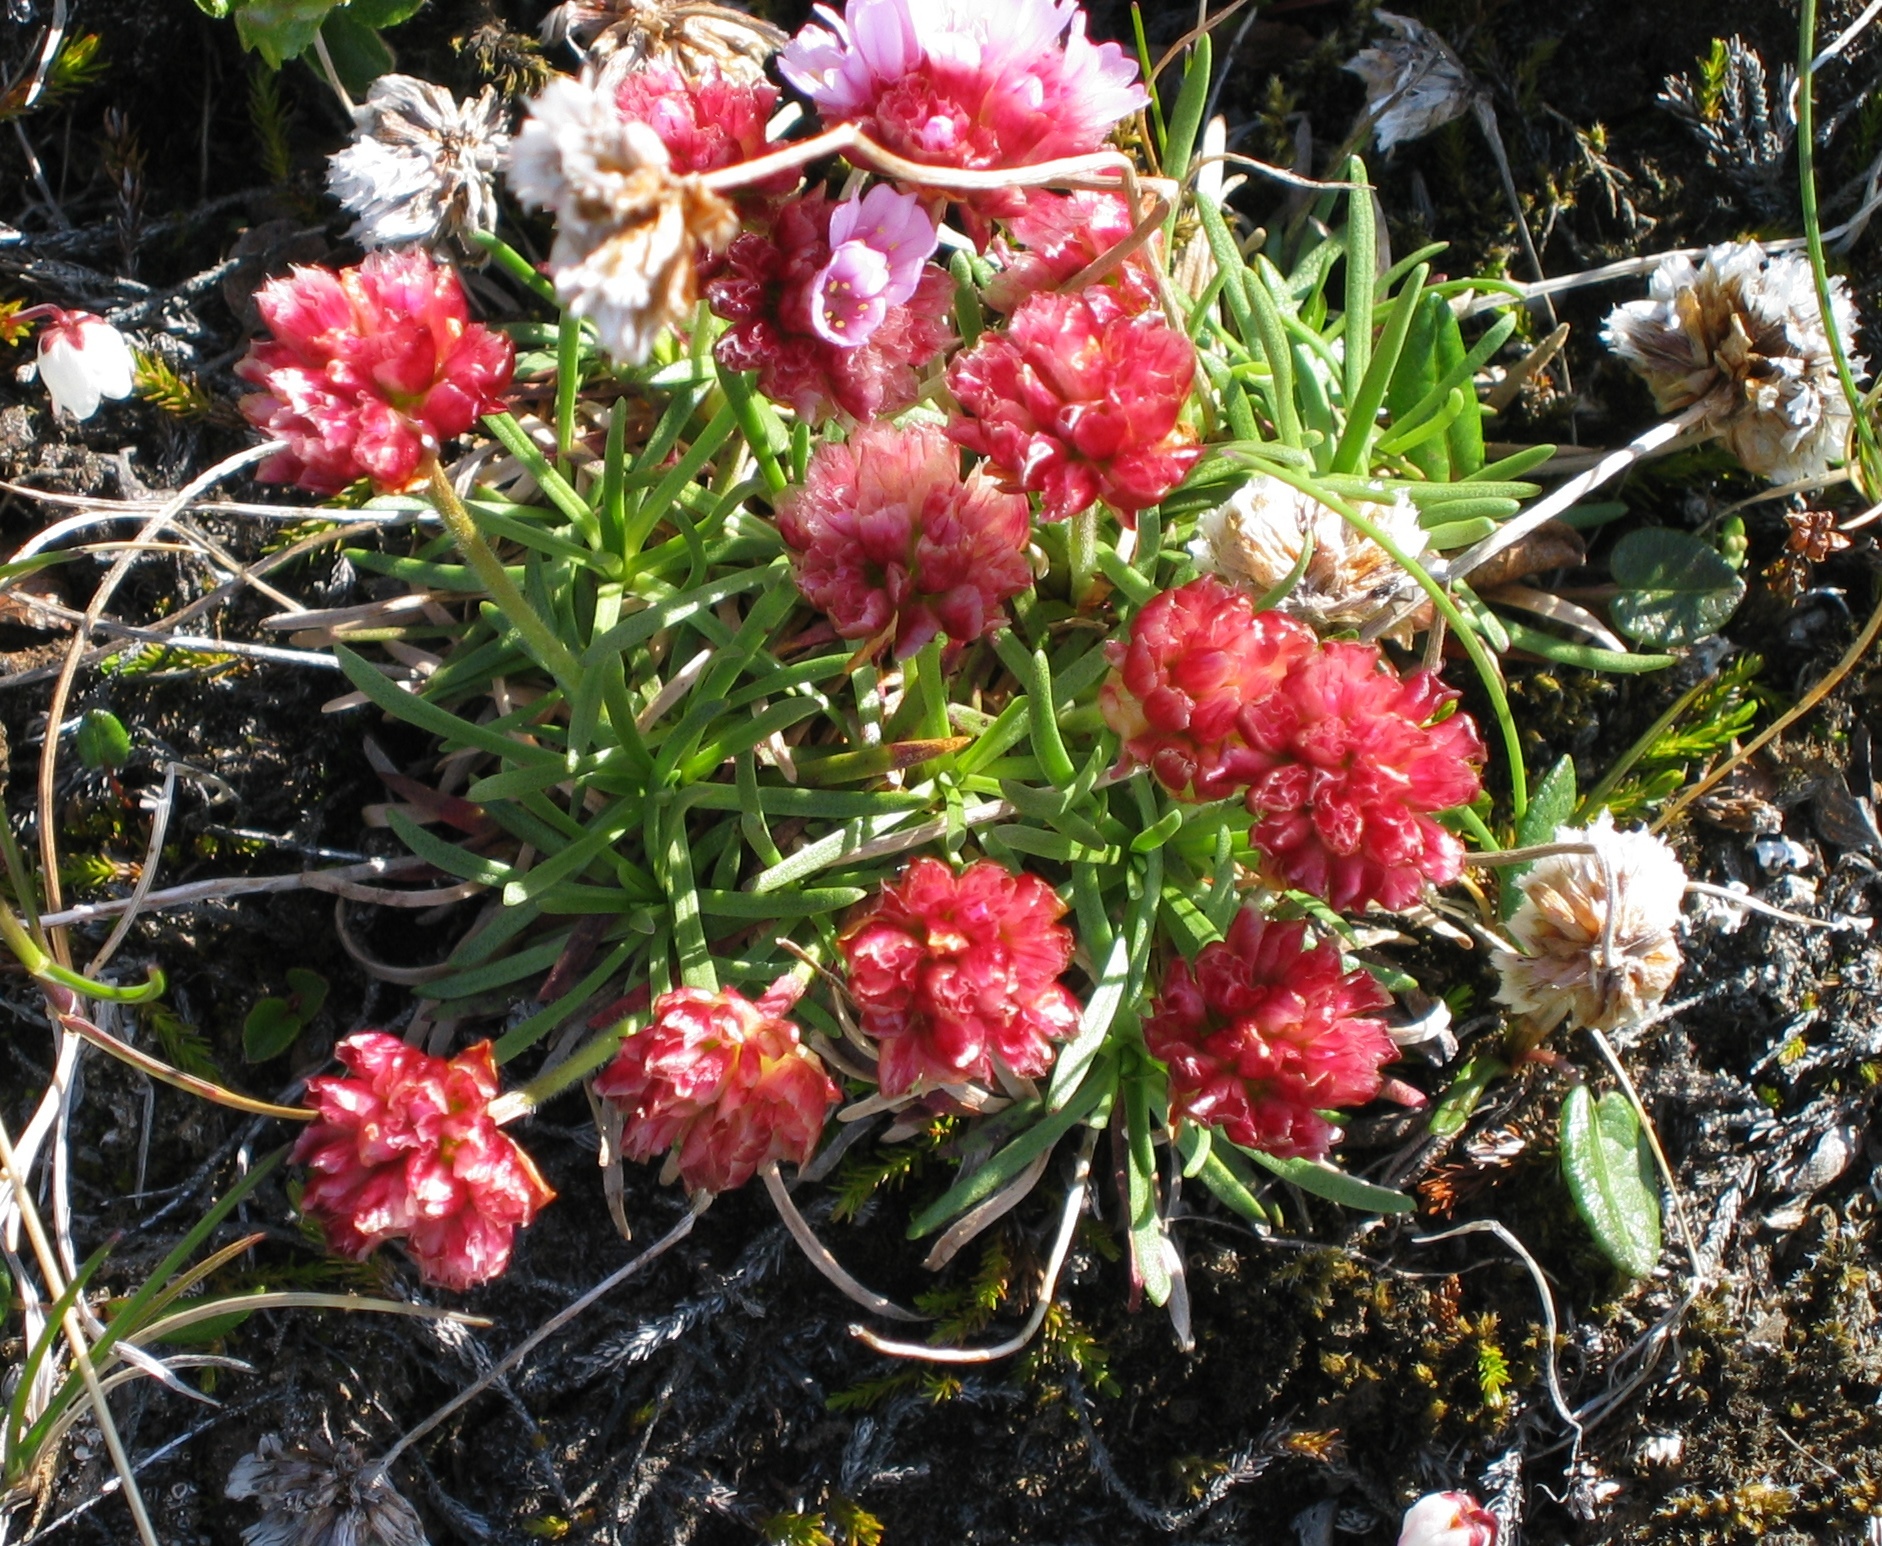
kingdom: Plantae
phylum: Tracheophyta
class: Magnoliopsida
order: Caryophyllales
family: Plumbaginaceae
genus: Armeria
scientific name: Armeria maritima
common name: Thrift
